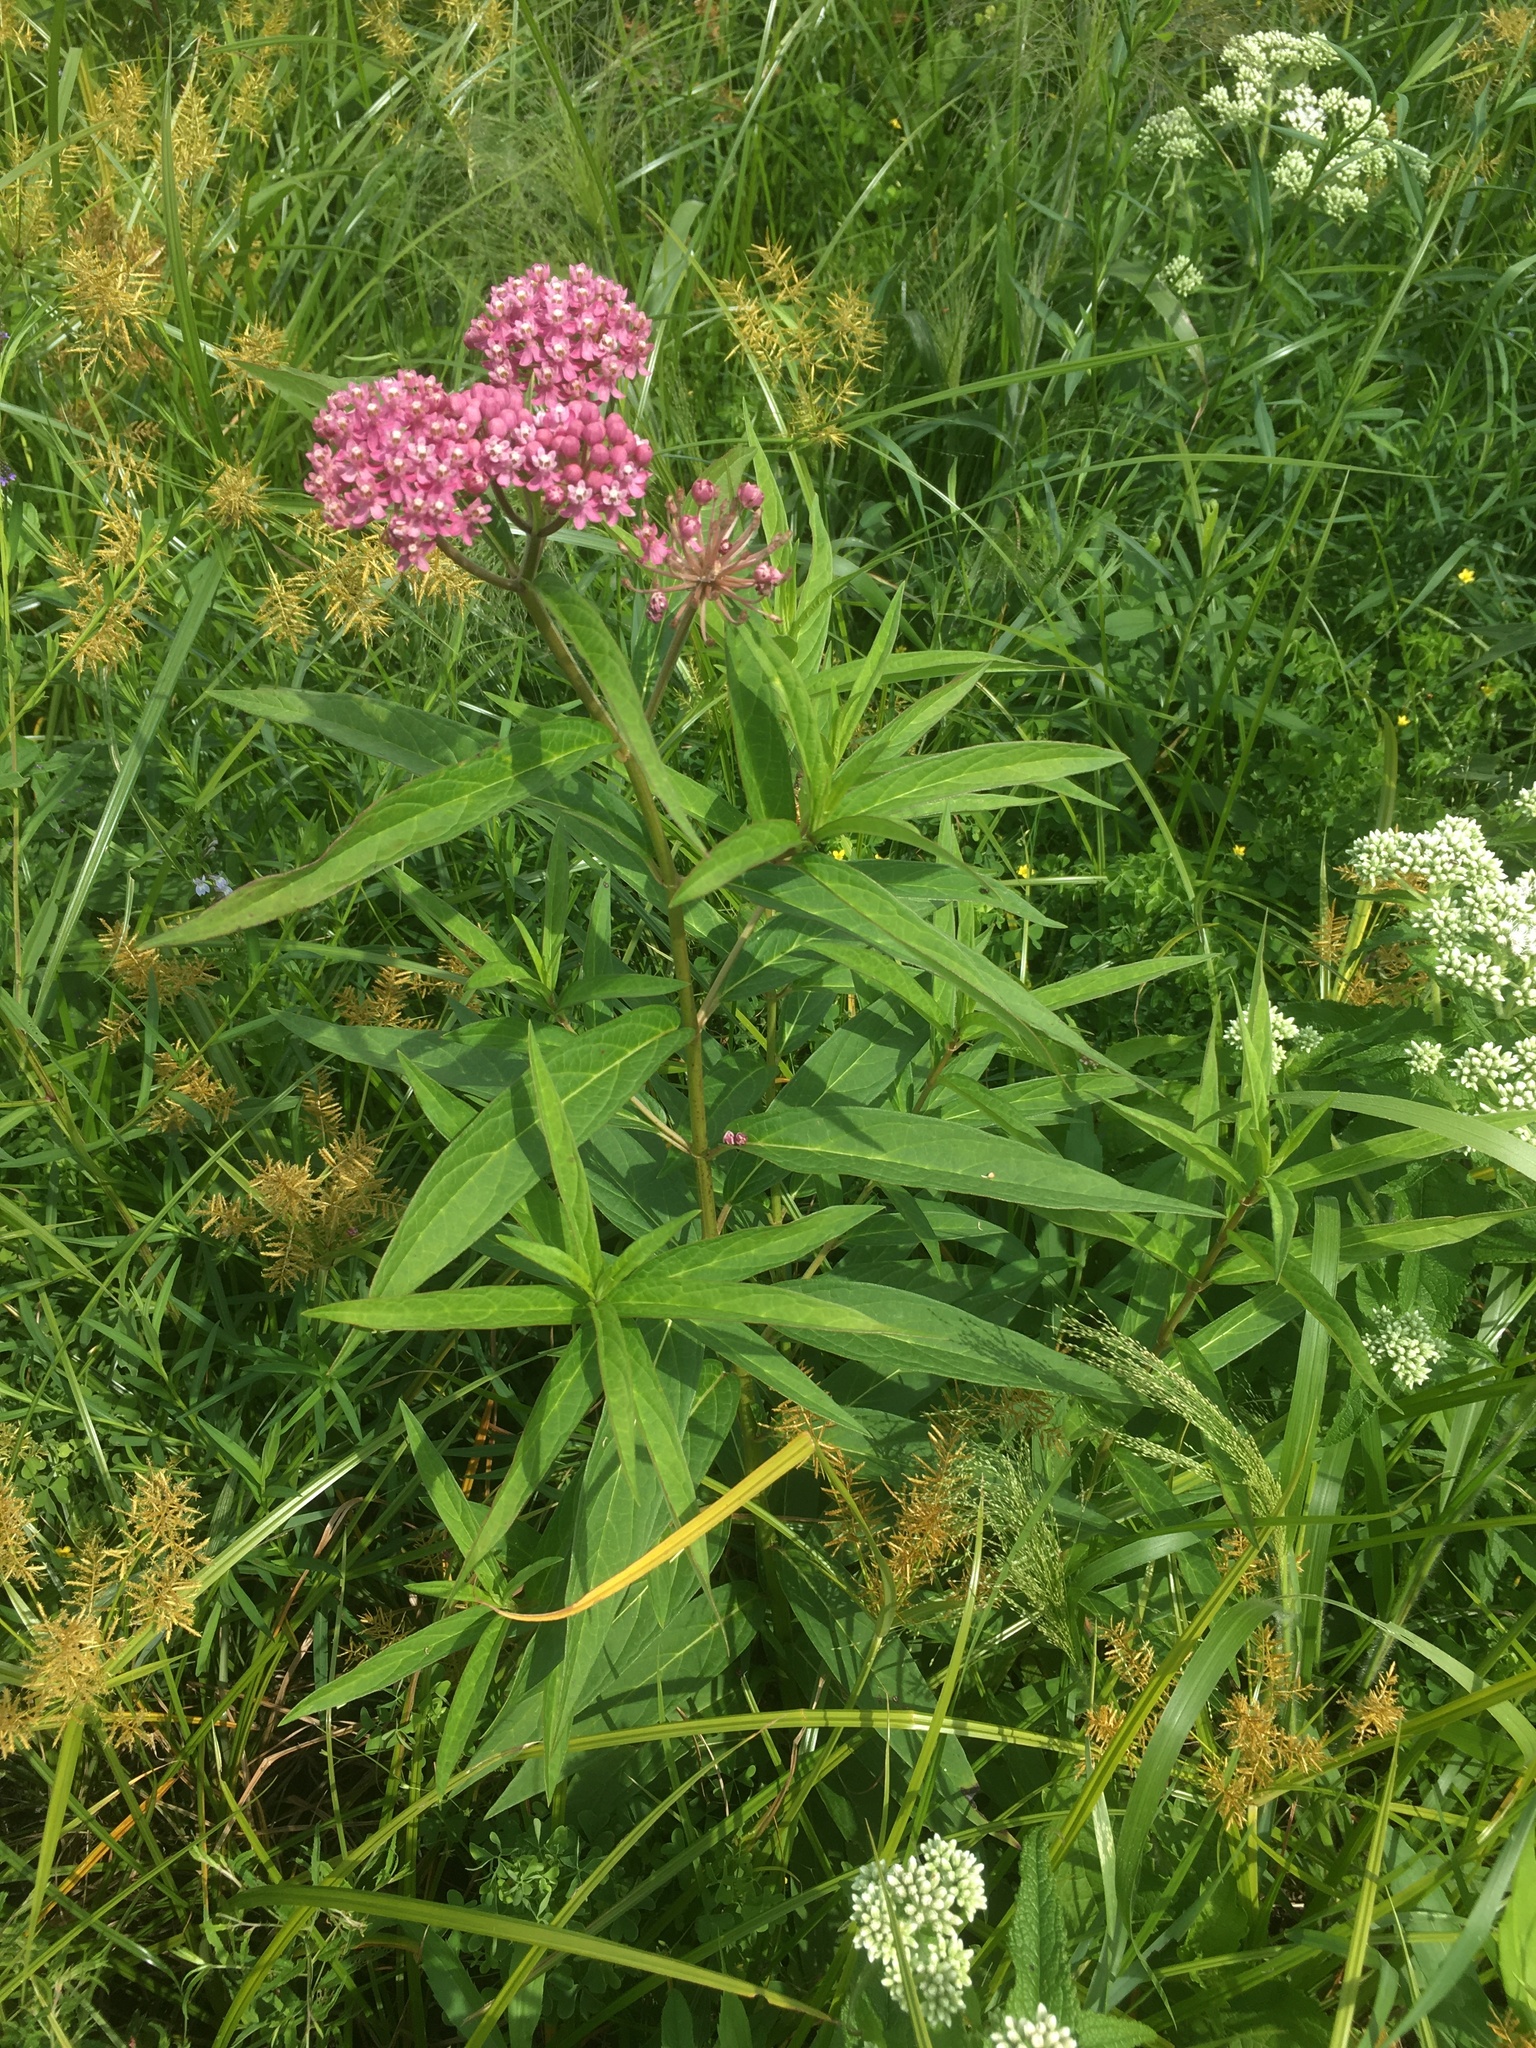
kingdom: Plantae
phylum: Tracheophyta
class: Magnoliopsida
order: Gentianales
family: Apocynaceae
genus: Asclepias
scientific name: Asclepias incarnata
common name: Swamp milkweed
